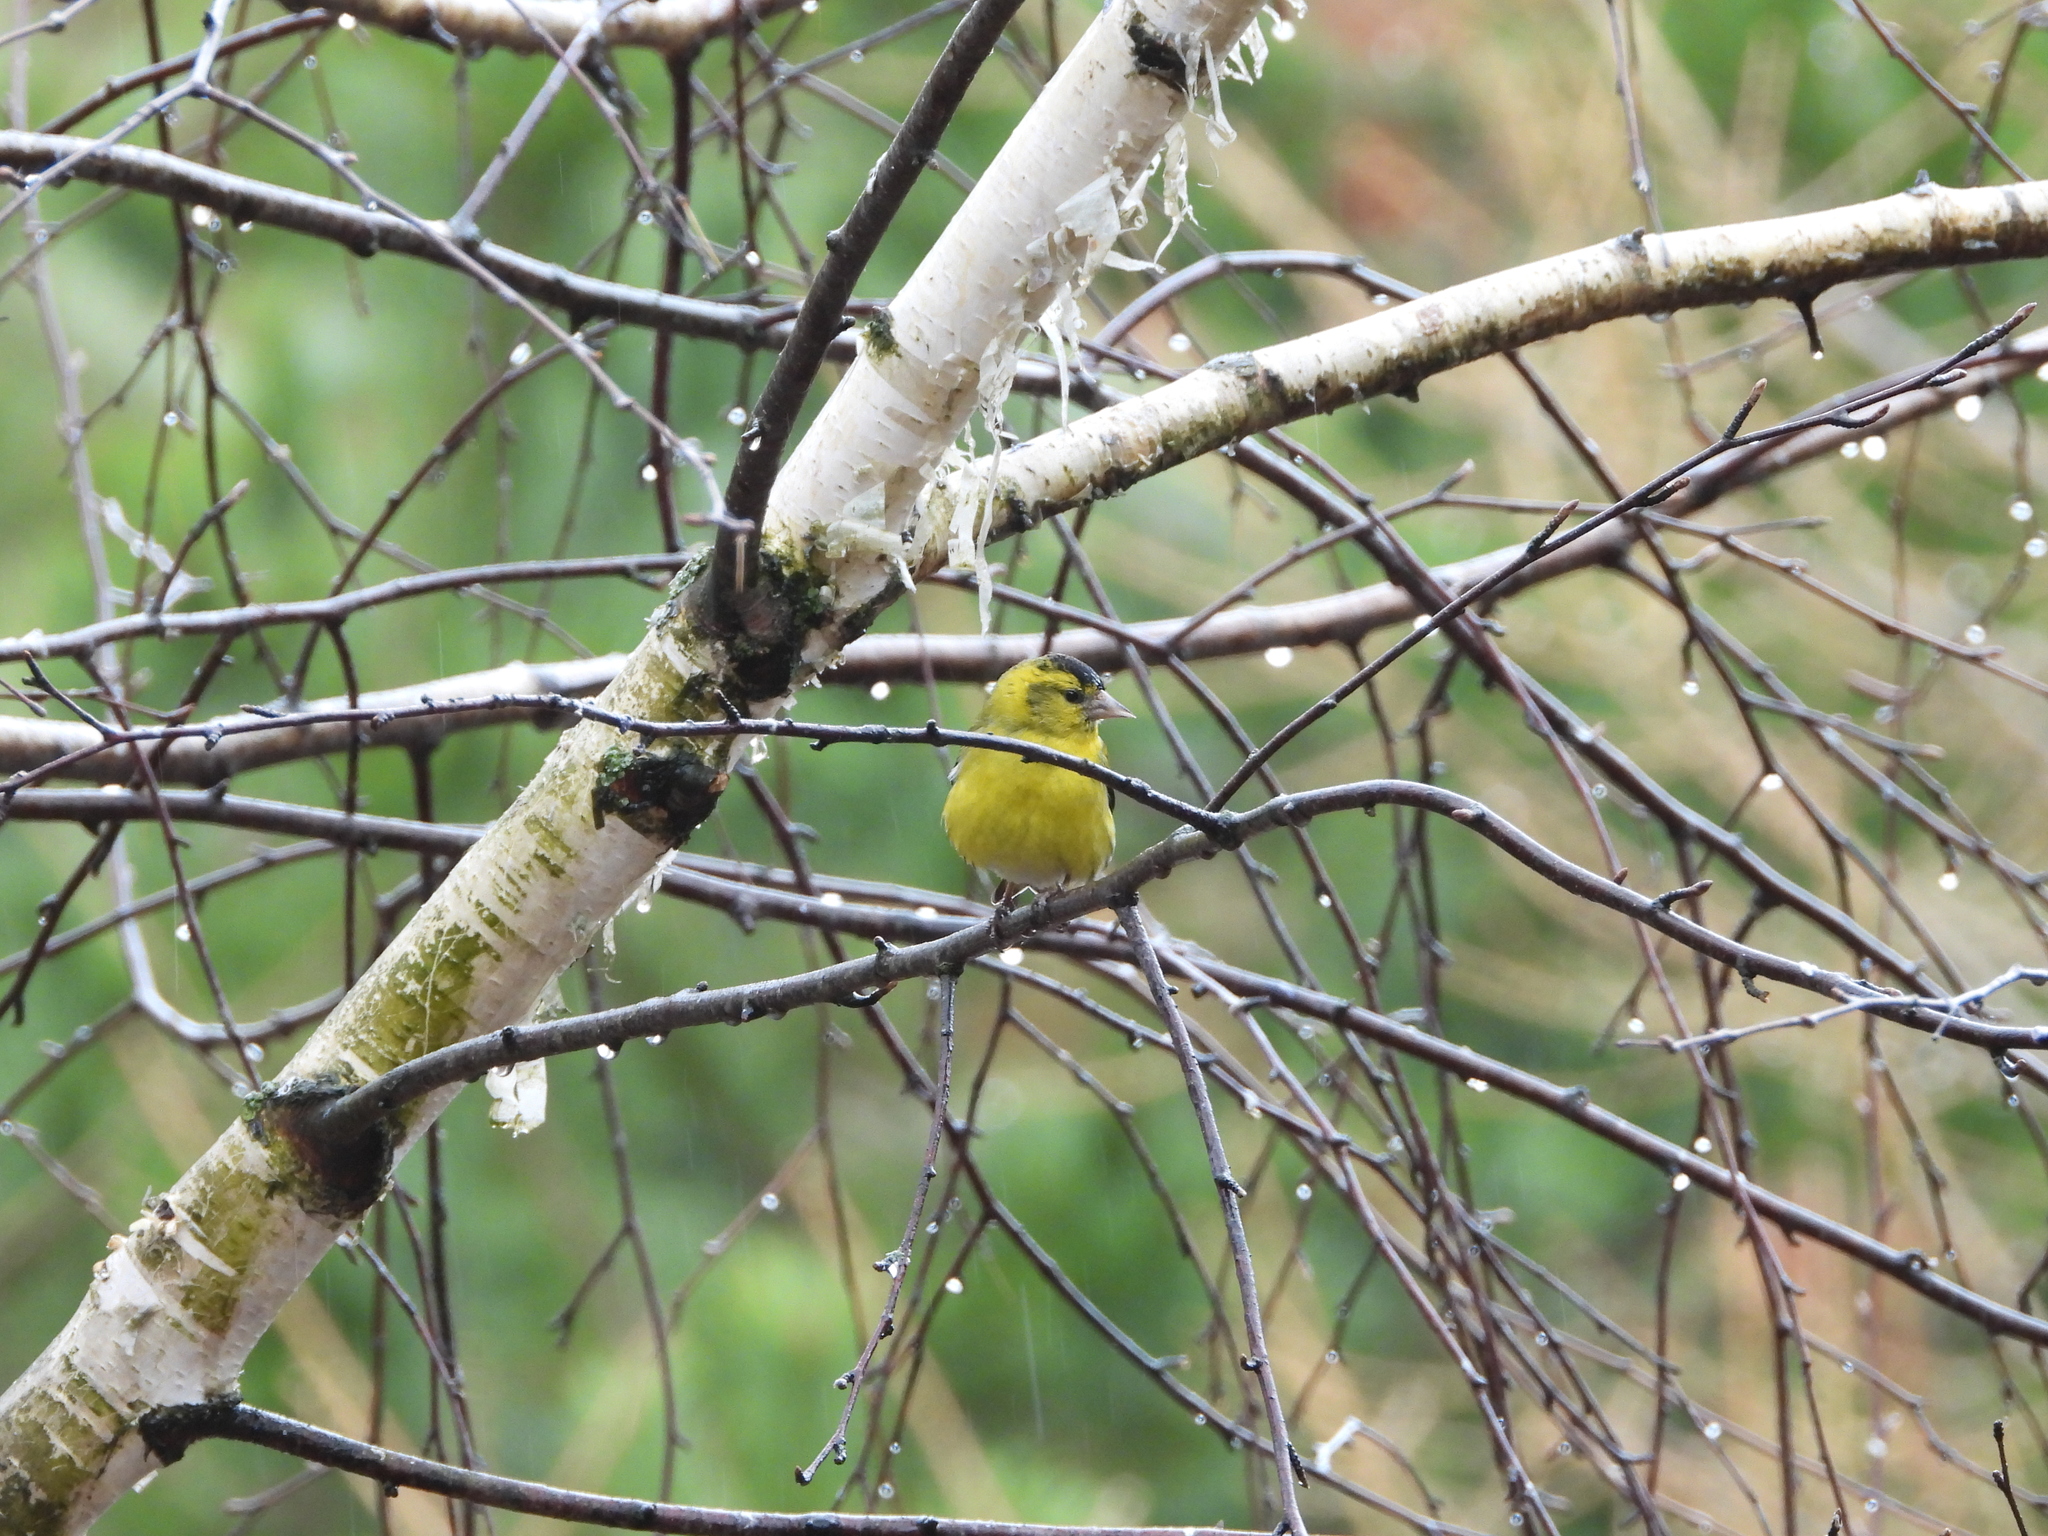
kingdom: Animalia
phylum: Chordata
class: Aves
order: Passeriformes
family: Fringillidae
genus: Spinus
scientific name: Spinus spinus
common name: Eurasian siskin
